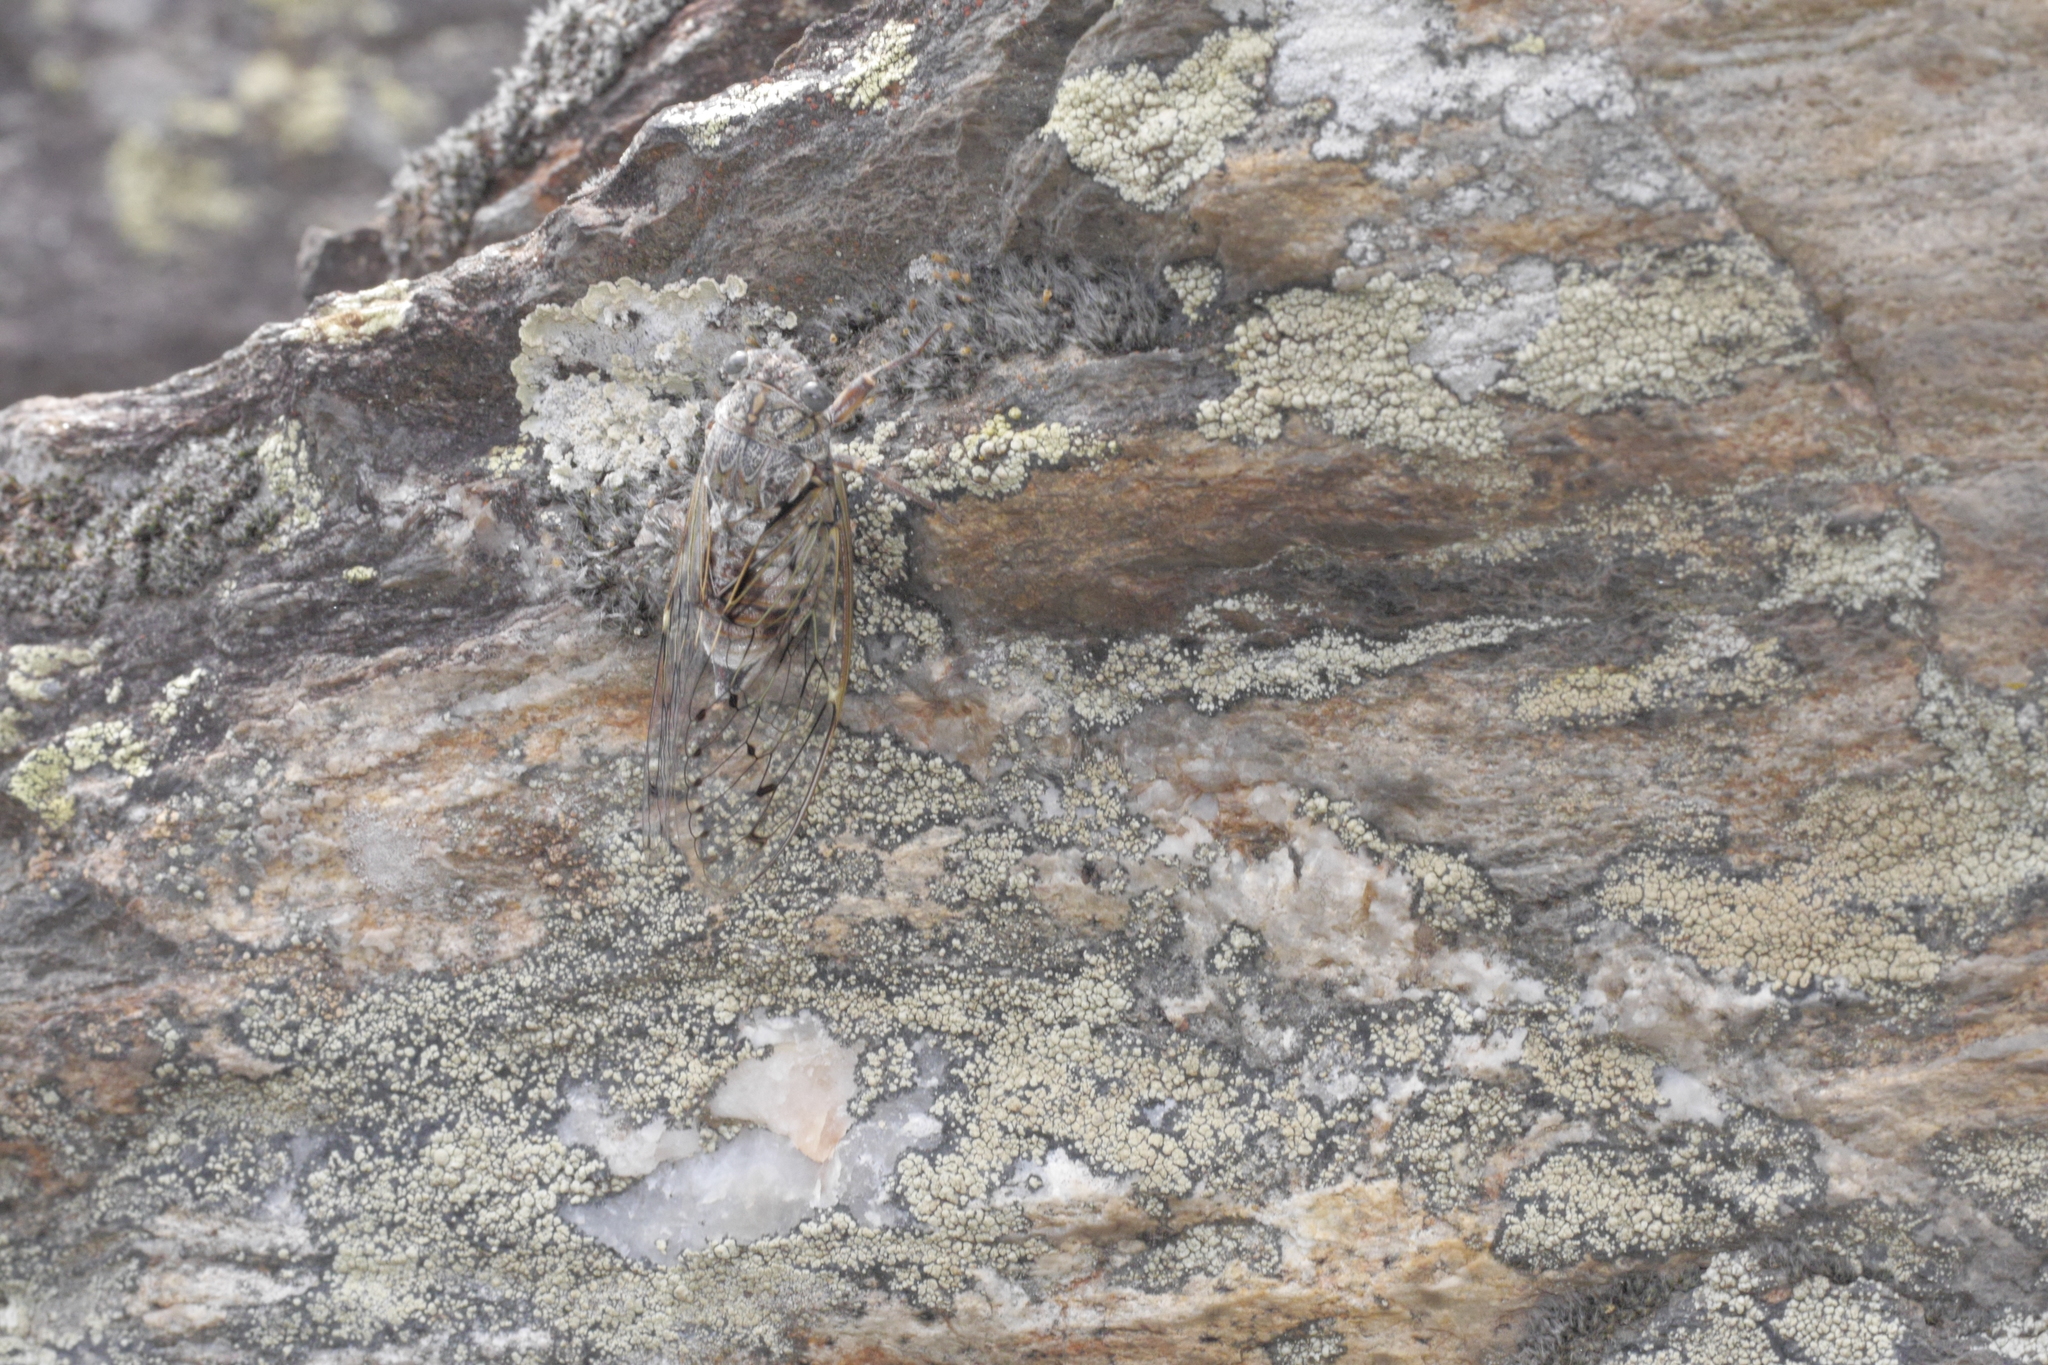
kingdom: Animalia
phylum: Arthropoda
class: Insecta
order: Hemiptera
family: Cicadidae
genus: Cicada
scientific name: Cicada orni
